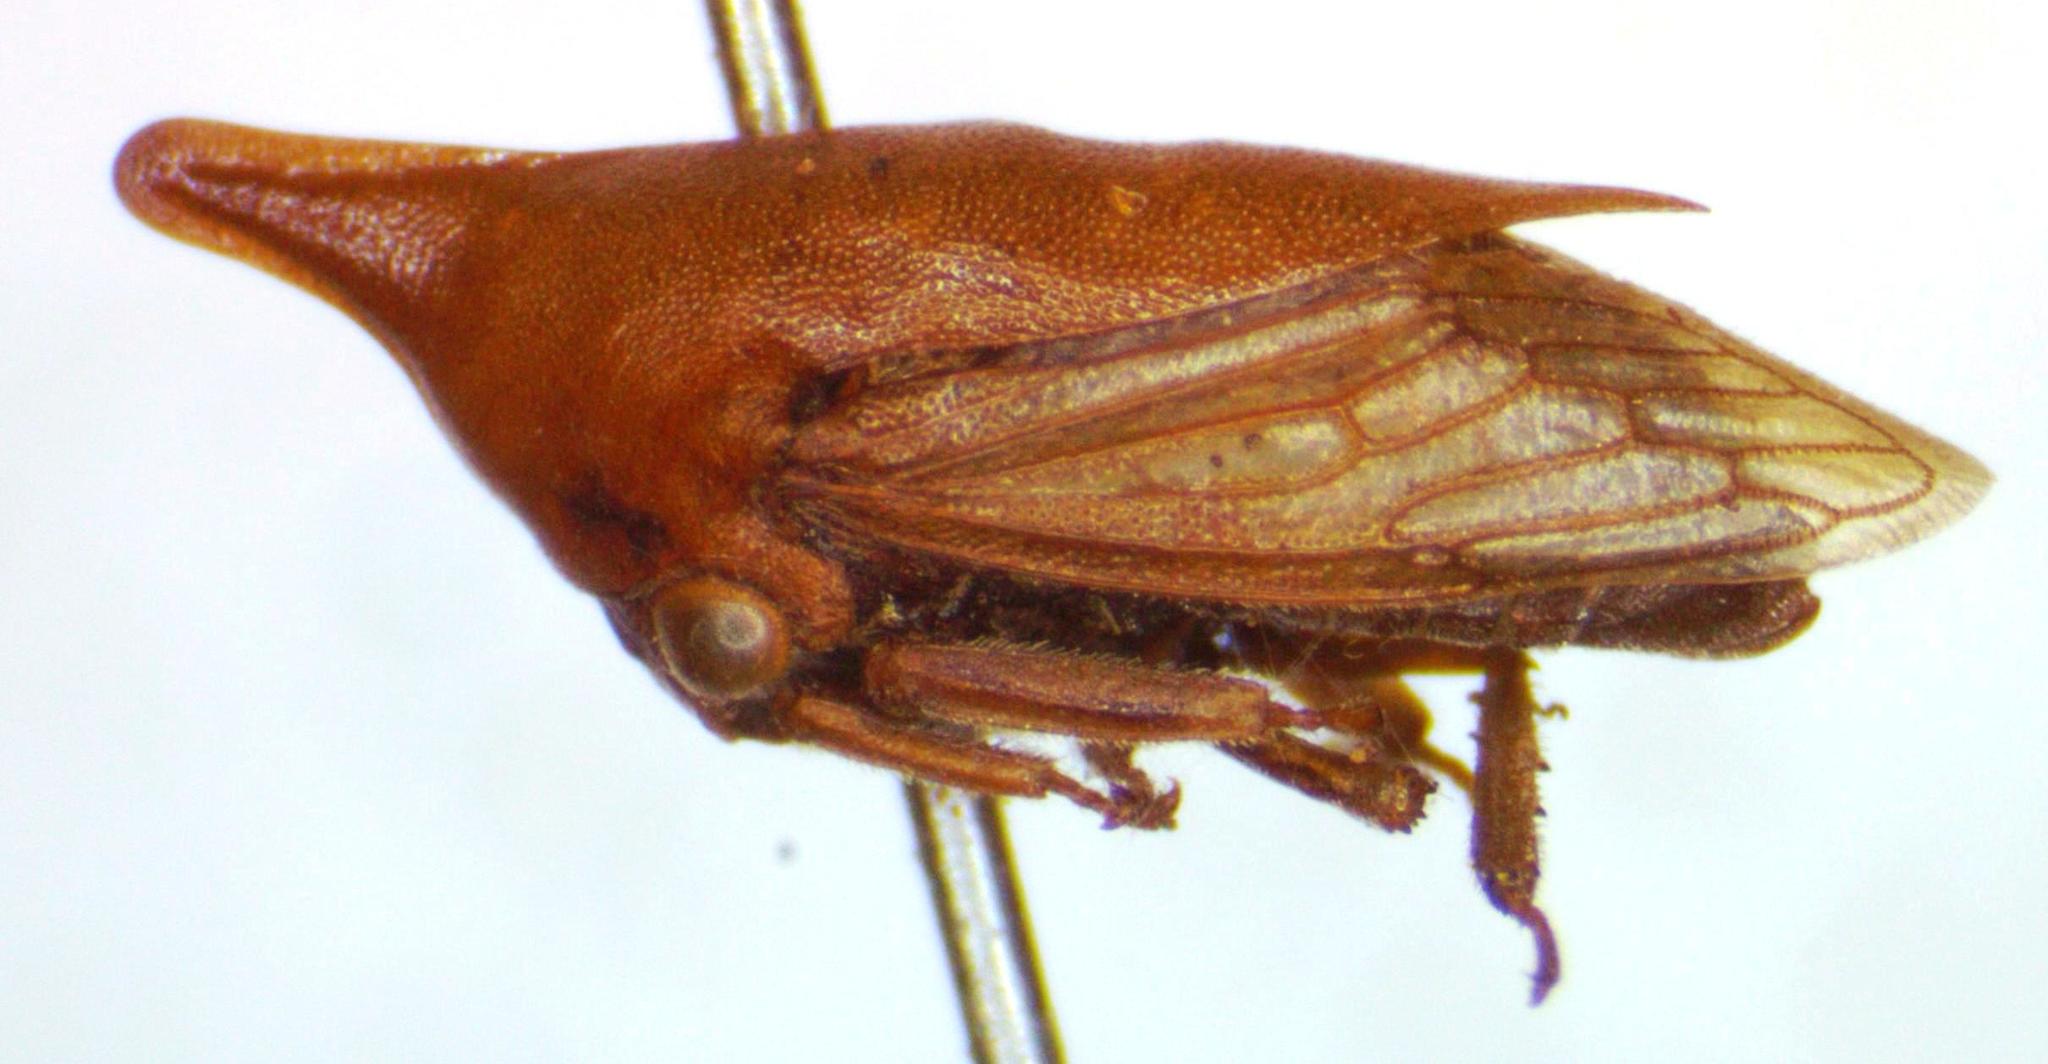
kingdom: Animalia
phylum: Arthropoda
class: Insecta
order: Hemiptera
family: Membracidae
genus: Guayaquila
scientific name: Guayaquila pallescens
